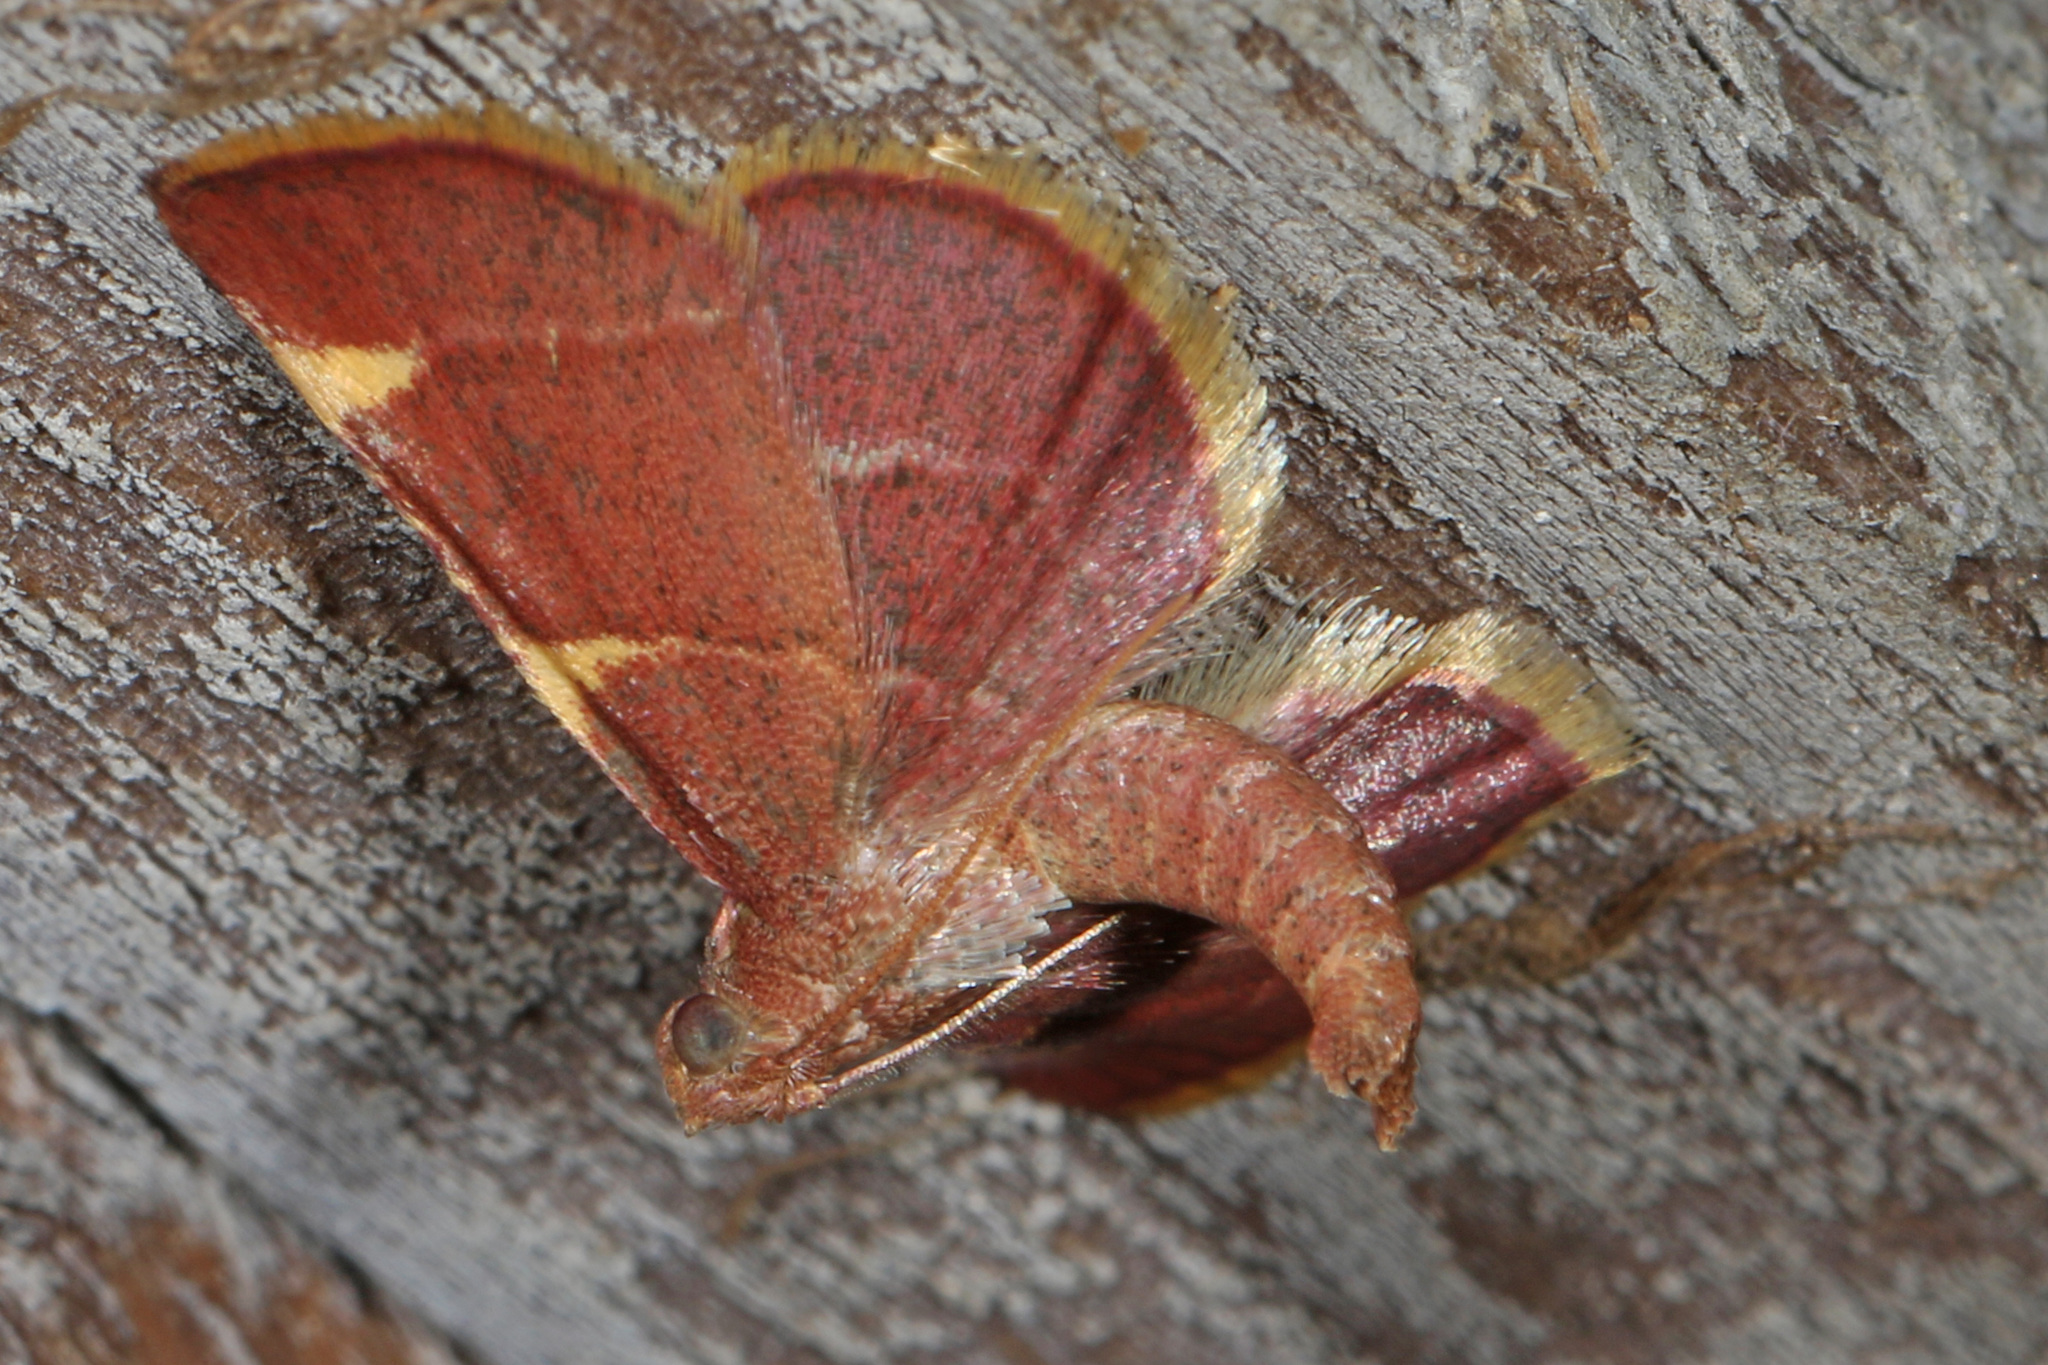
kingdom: Animalia
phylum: Arthropoda
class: Insecta
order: Lepidoptera
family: Pyralidae
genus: Hypsopygia
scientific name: Hypsopygia olinalis
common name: Yellow-fringed dolichomia moth
